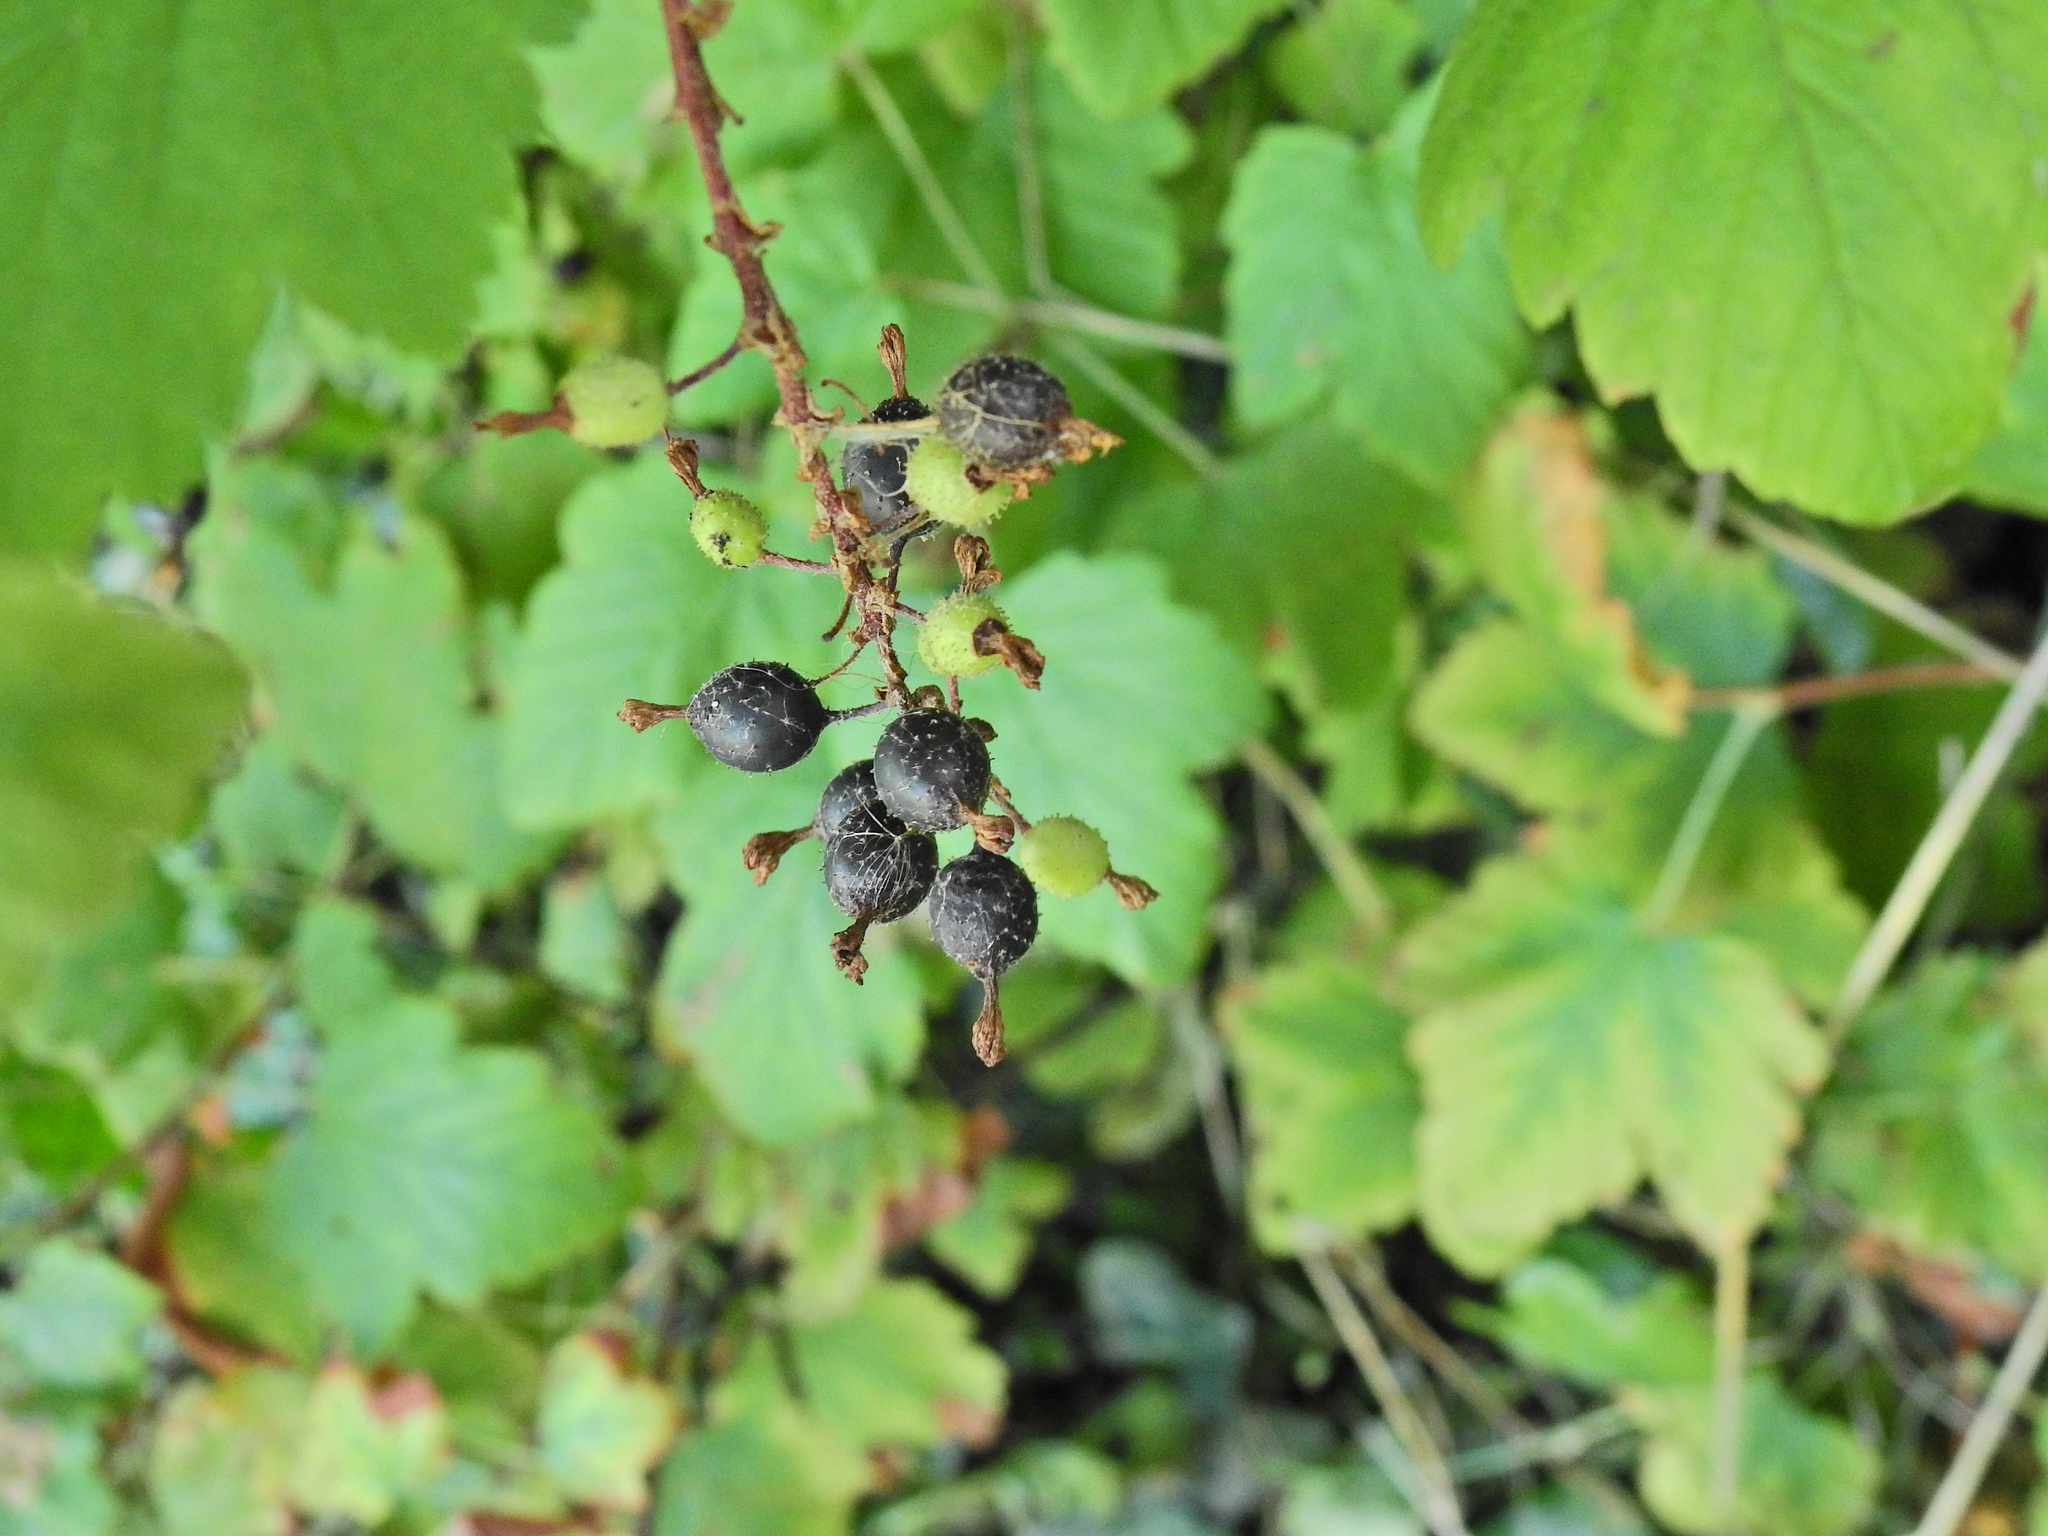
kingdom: Plantae
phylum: Tracheophyta
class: Magnoliopsida
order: Saxifragales
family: Grossulariaceae
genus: Ribes
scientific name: Ribes sanguineum
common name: Flowering currant
